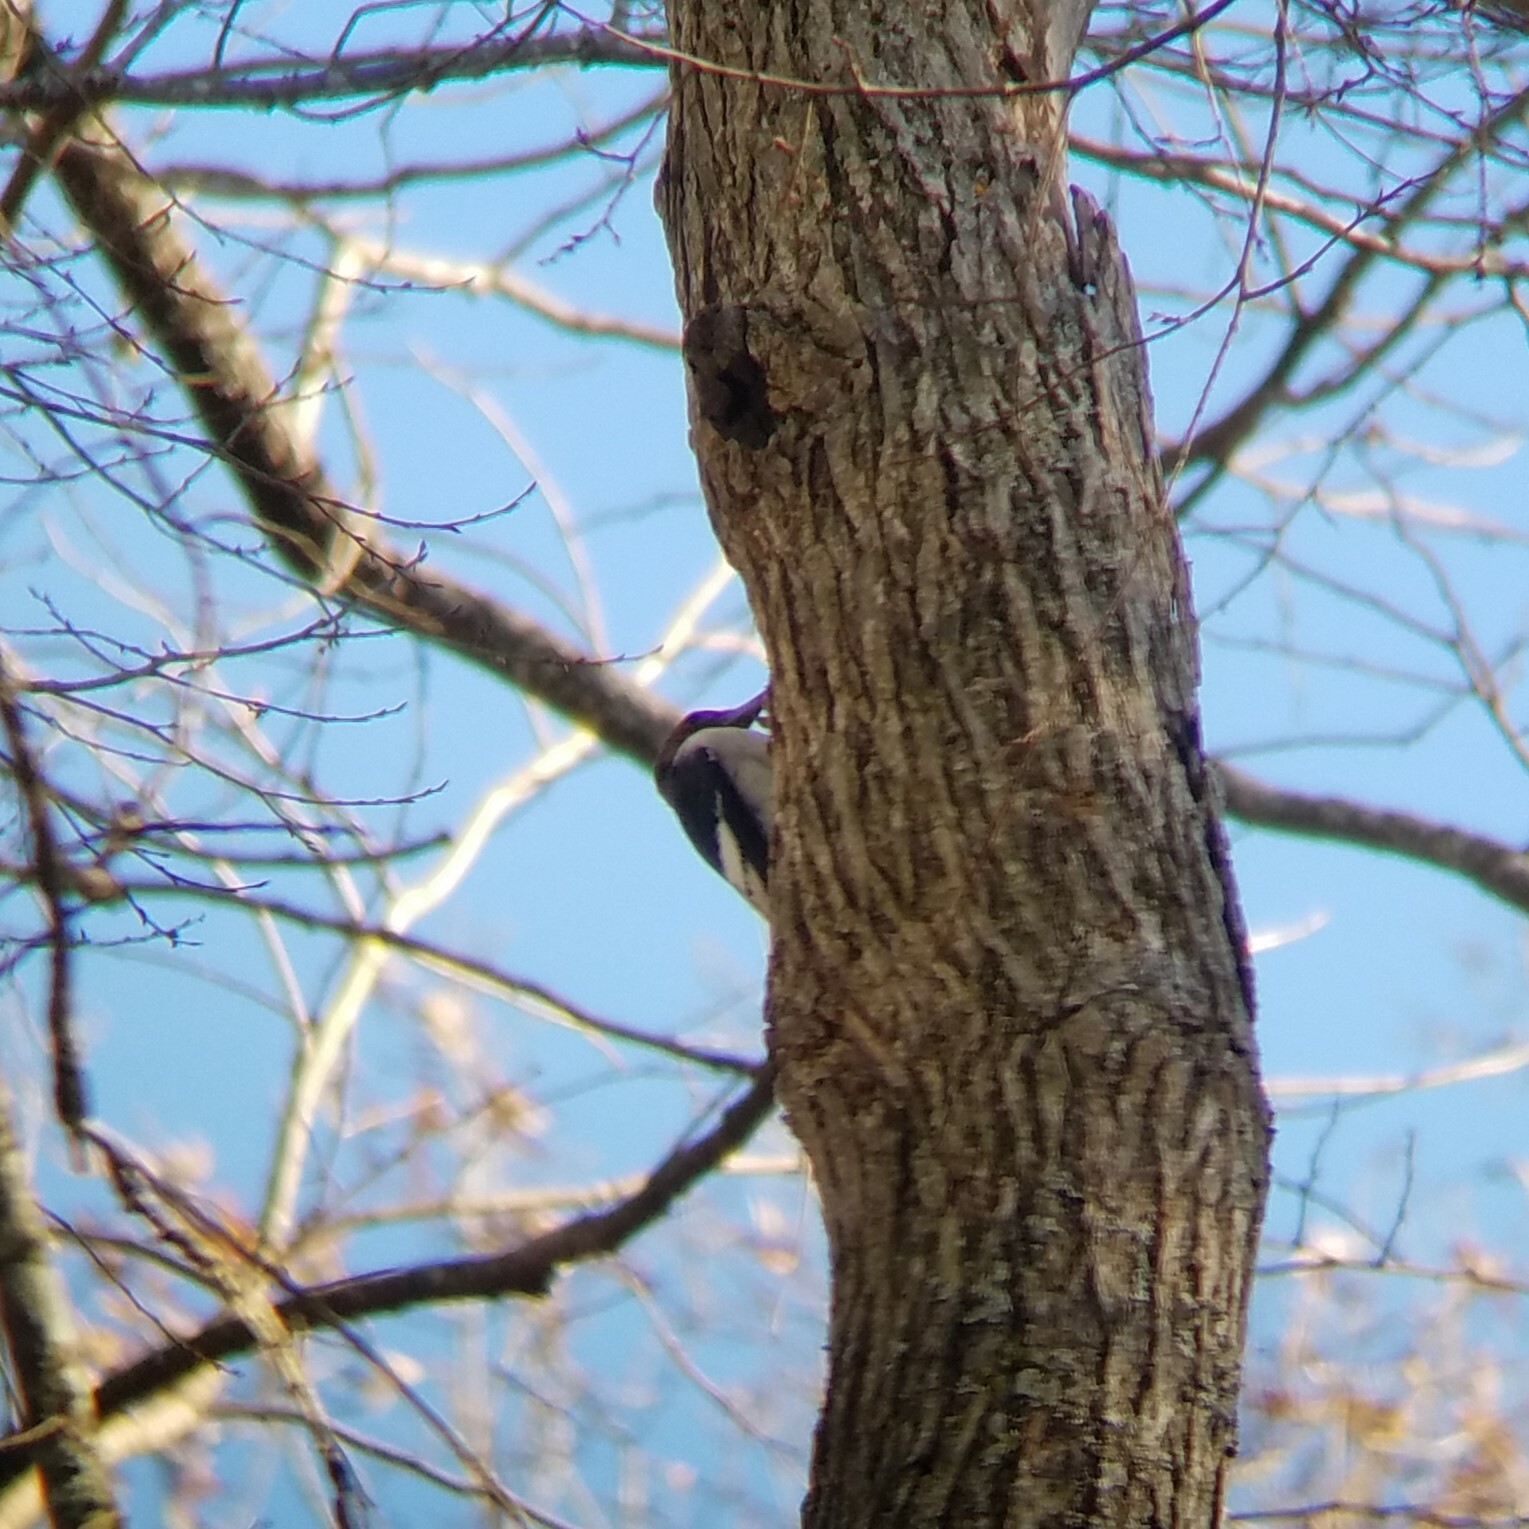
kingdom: Animalia
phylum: Chordata
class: Aves
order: Piciformes
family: Picidae
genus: Melanerpes
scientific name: Melanerpes erythrocephalus
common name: Red-headed woodpecker
